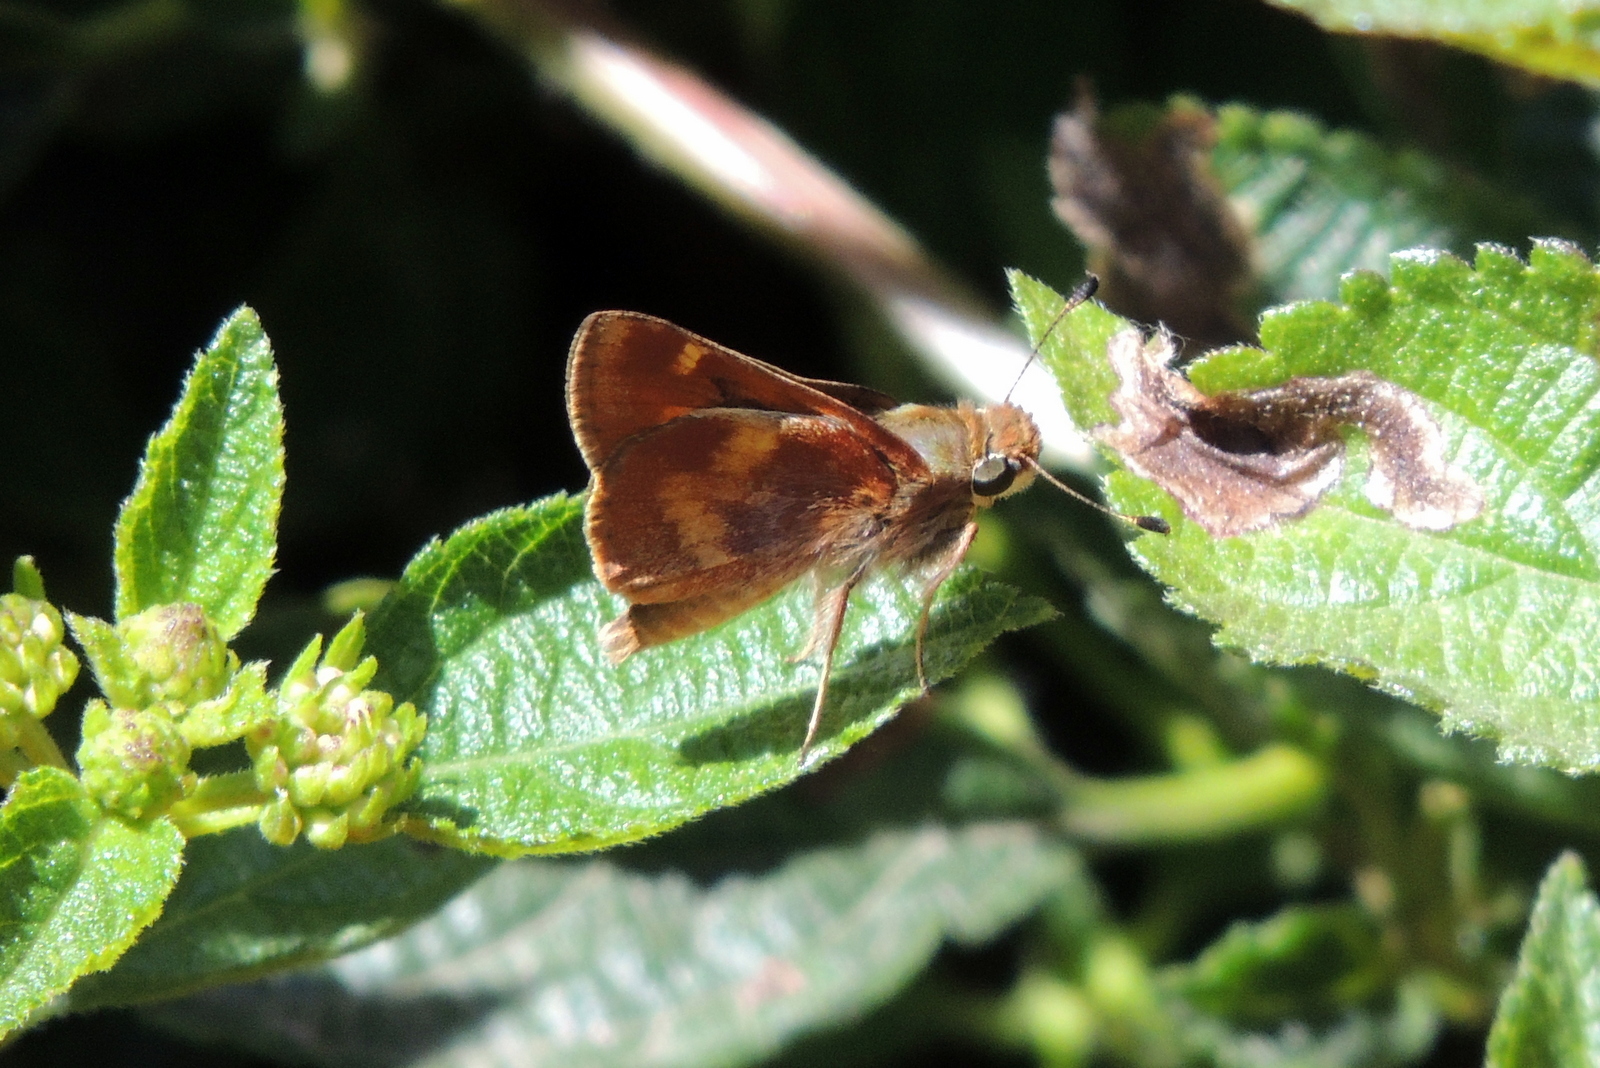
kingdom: Animalia
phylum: Arthropoda
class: Insecta
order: Lepidoptera
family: Hesperiidae
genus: Lon
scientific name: Lon melane
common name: Umber skipper
